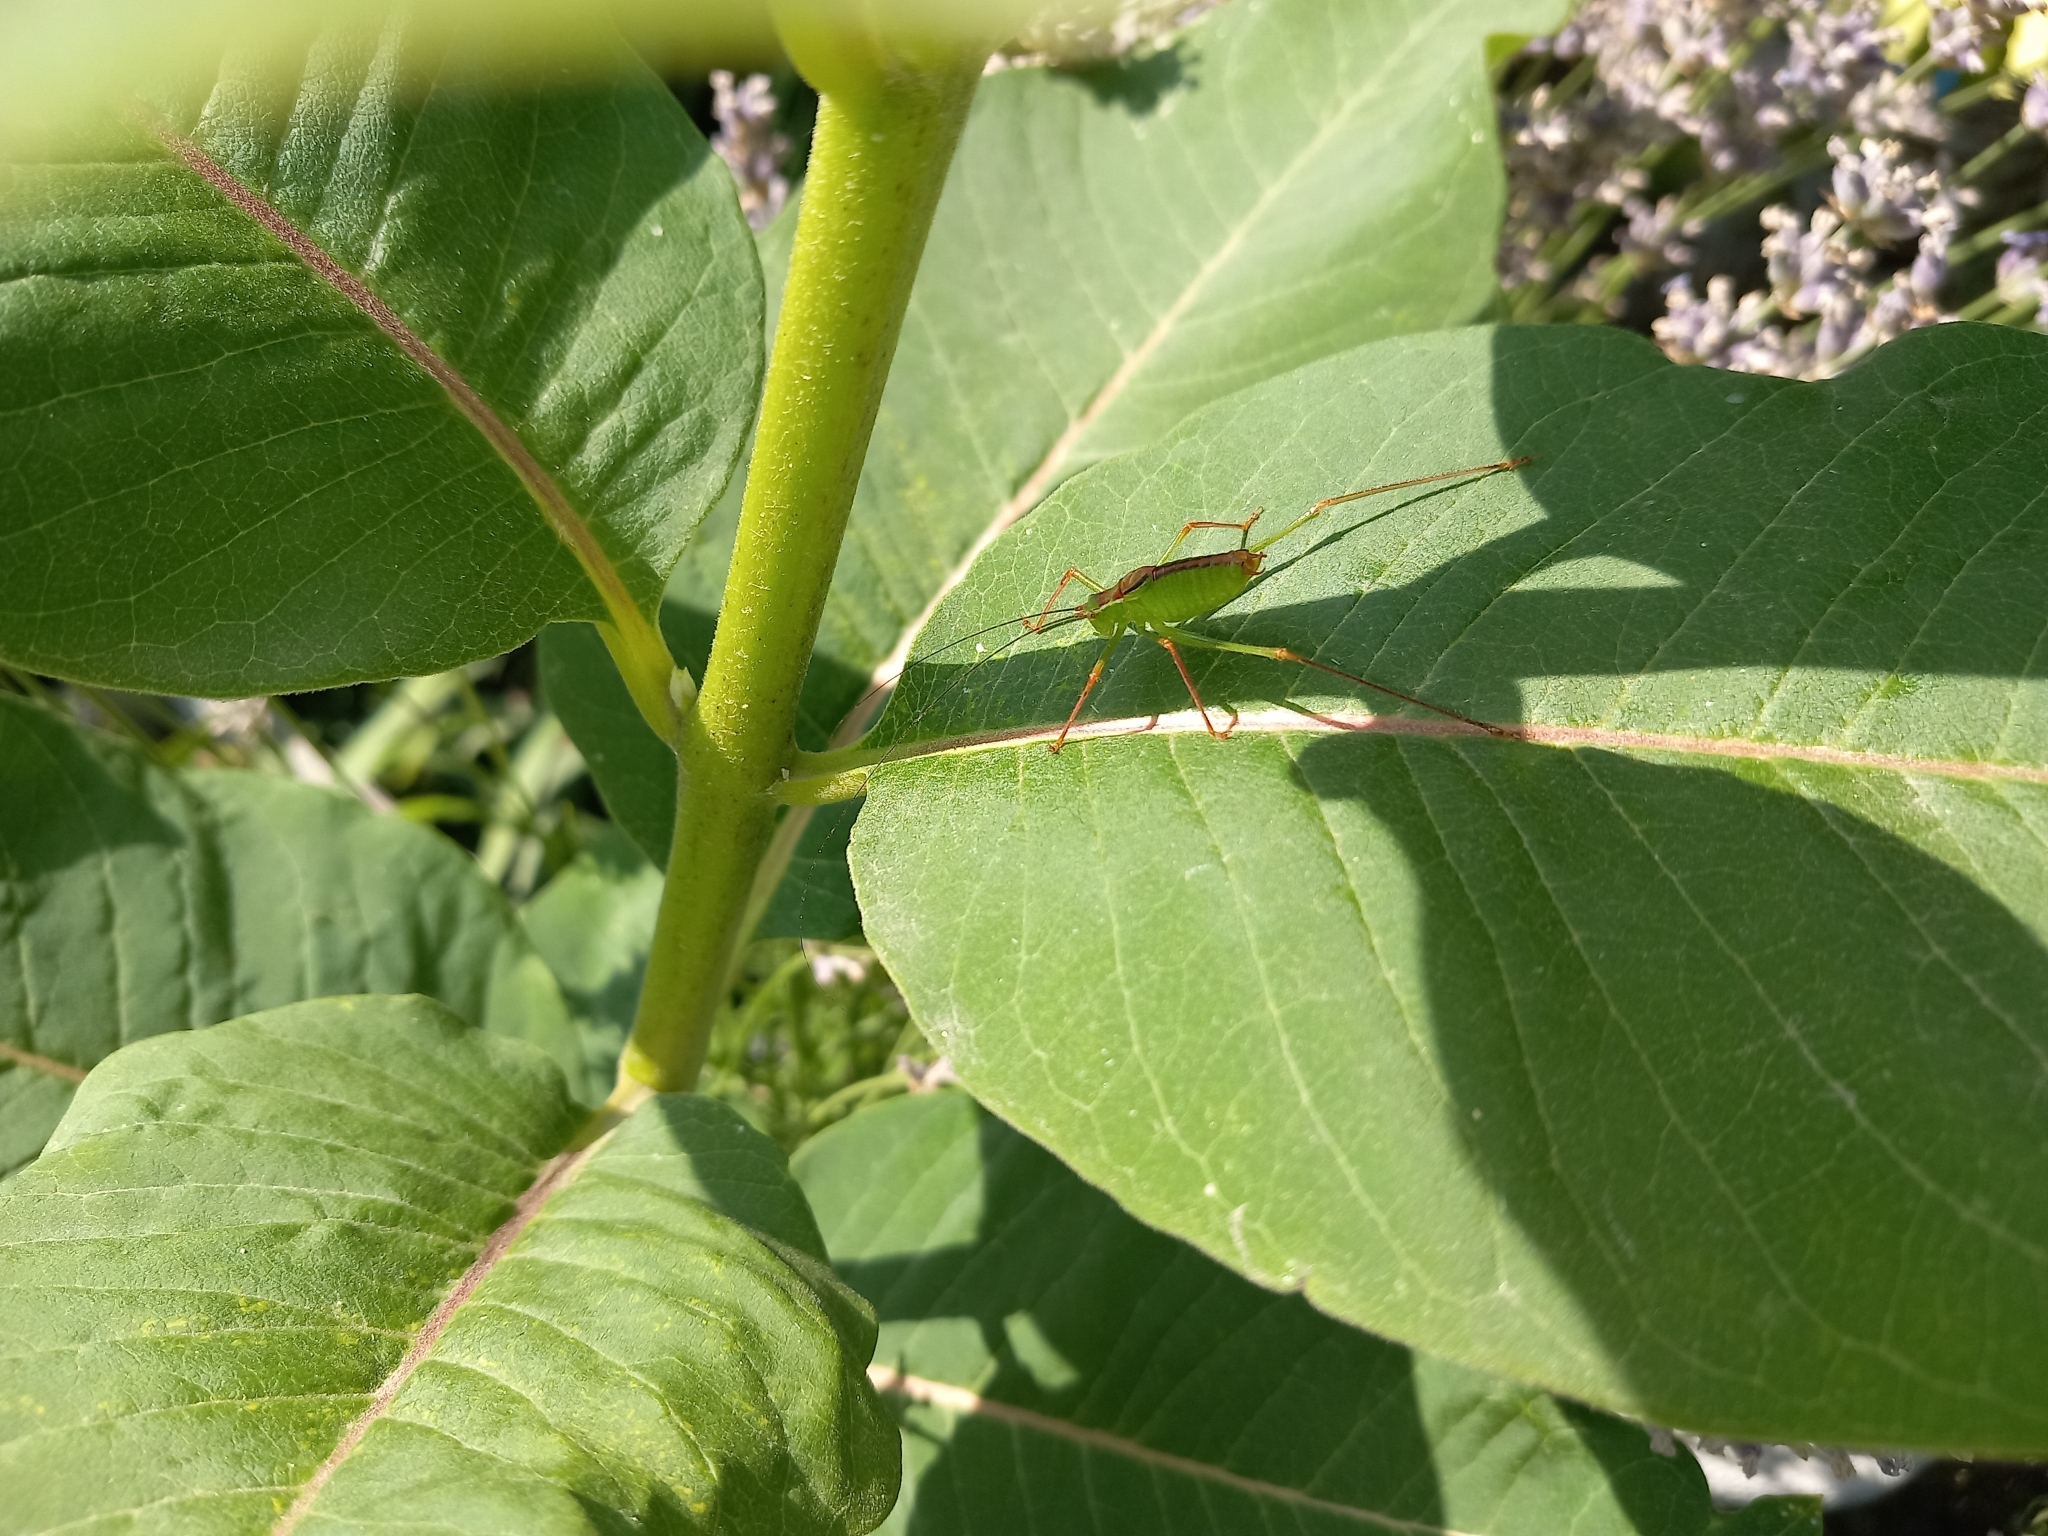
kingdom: Animalia
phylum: Arthropoda
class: Insecta
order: Orthoptera
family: Tettigoniidae
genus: Leptophyes
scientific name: Leptophyes punctatissima
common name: Speckled bush-cricket
